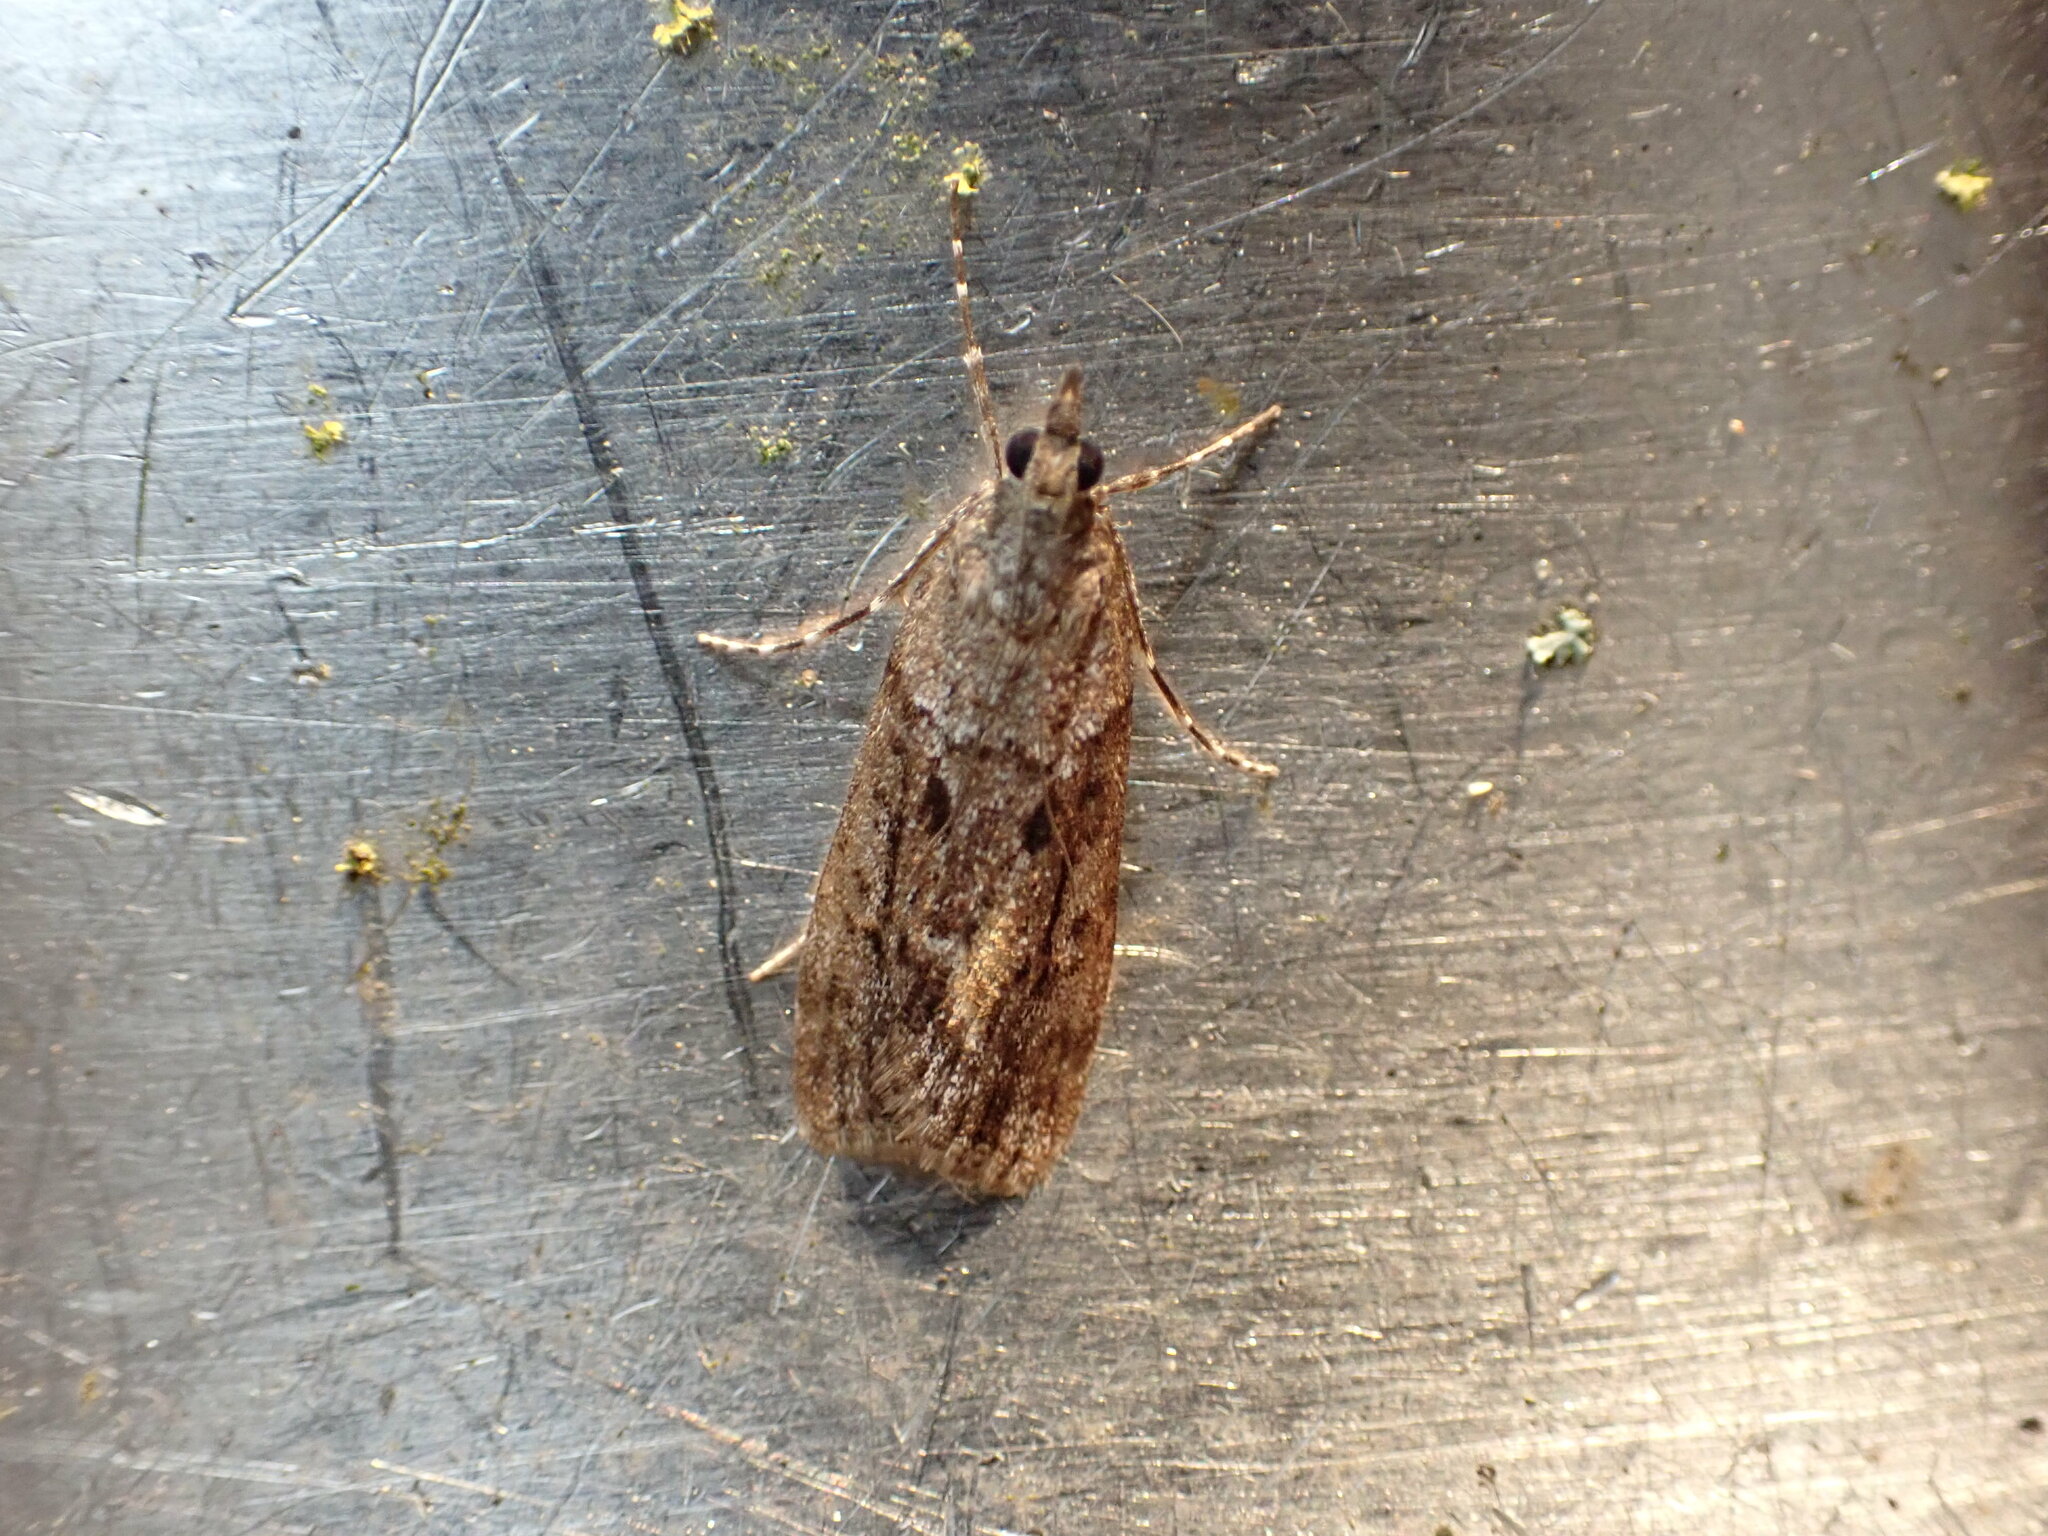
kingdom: Animalia
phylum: Arthropoda
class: Insecta
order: Lepidoptera
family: Crambidae
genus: Eudonia
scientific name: Eudonia submarginalis
